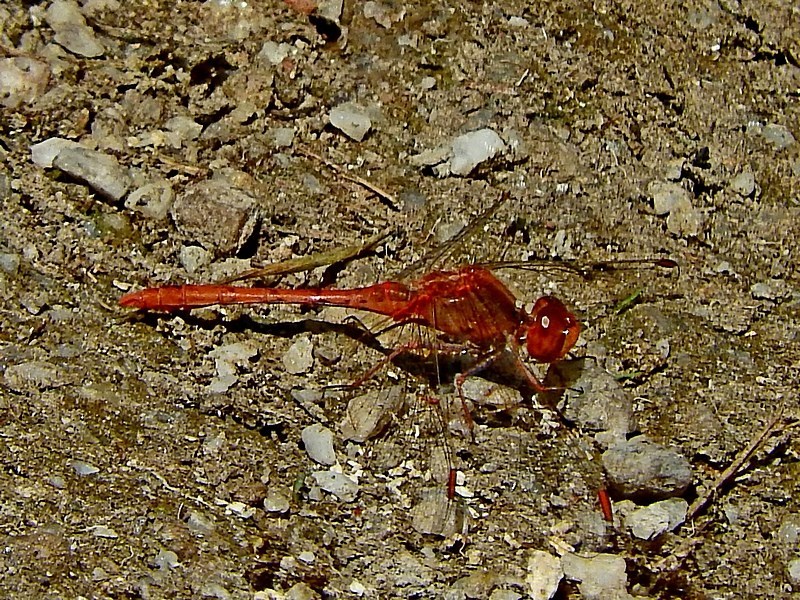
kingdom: Animalia
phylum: Arthropoda
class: Insecta
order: Odonata
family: Libellulidae
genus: Diplacodes
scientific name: Diplacodes bipunctata
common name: Red percher dragonfly
